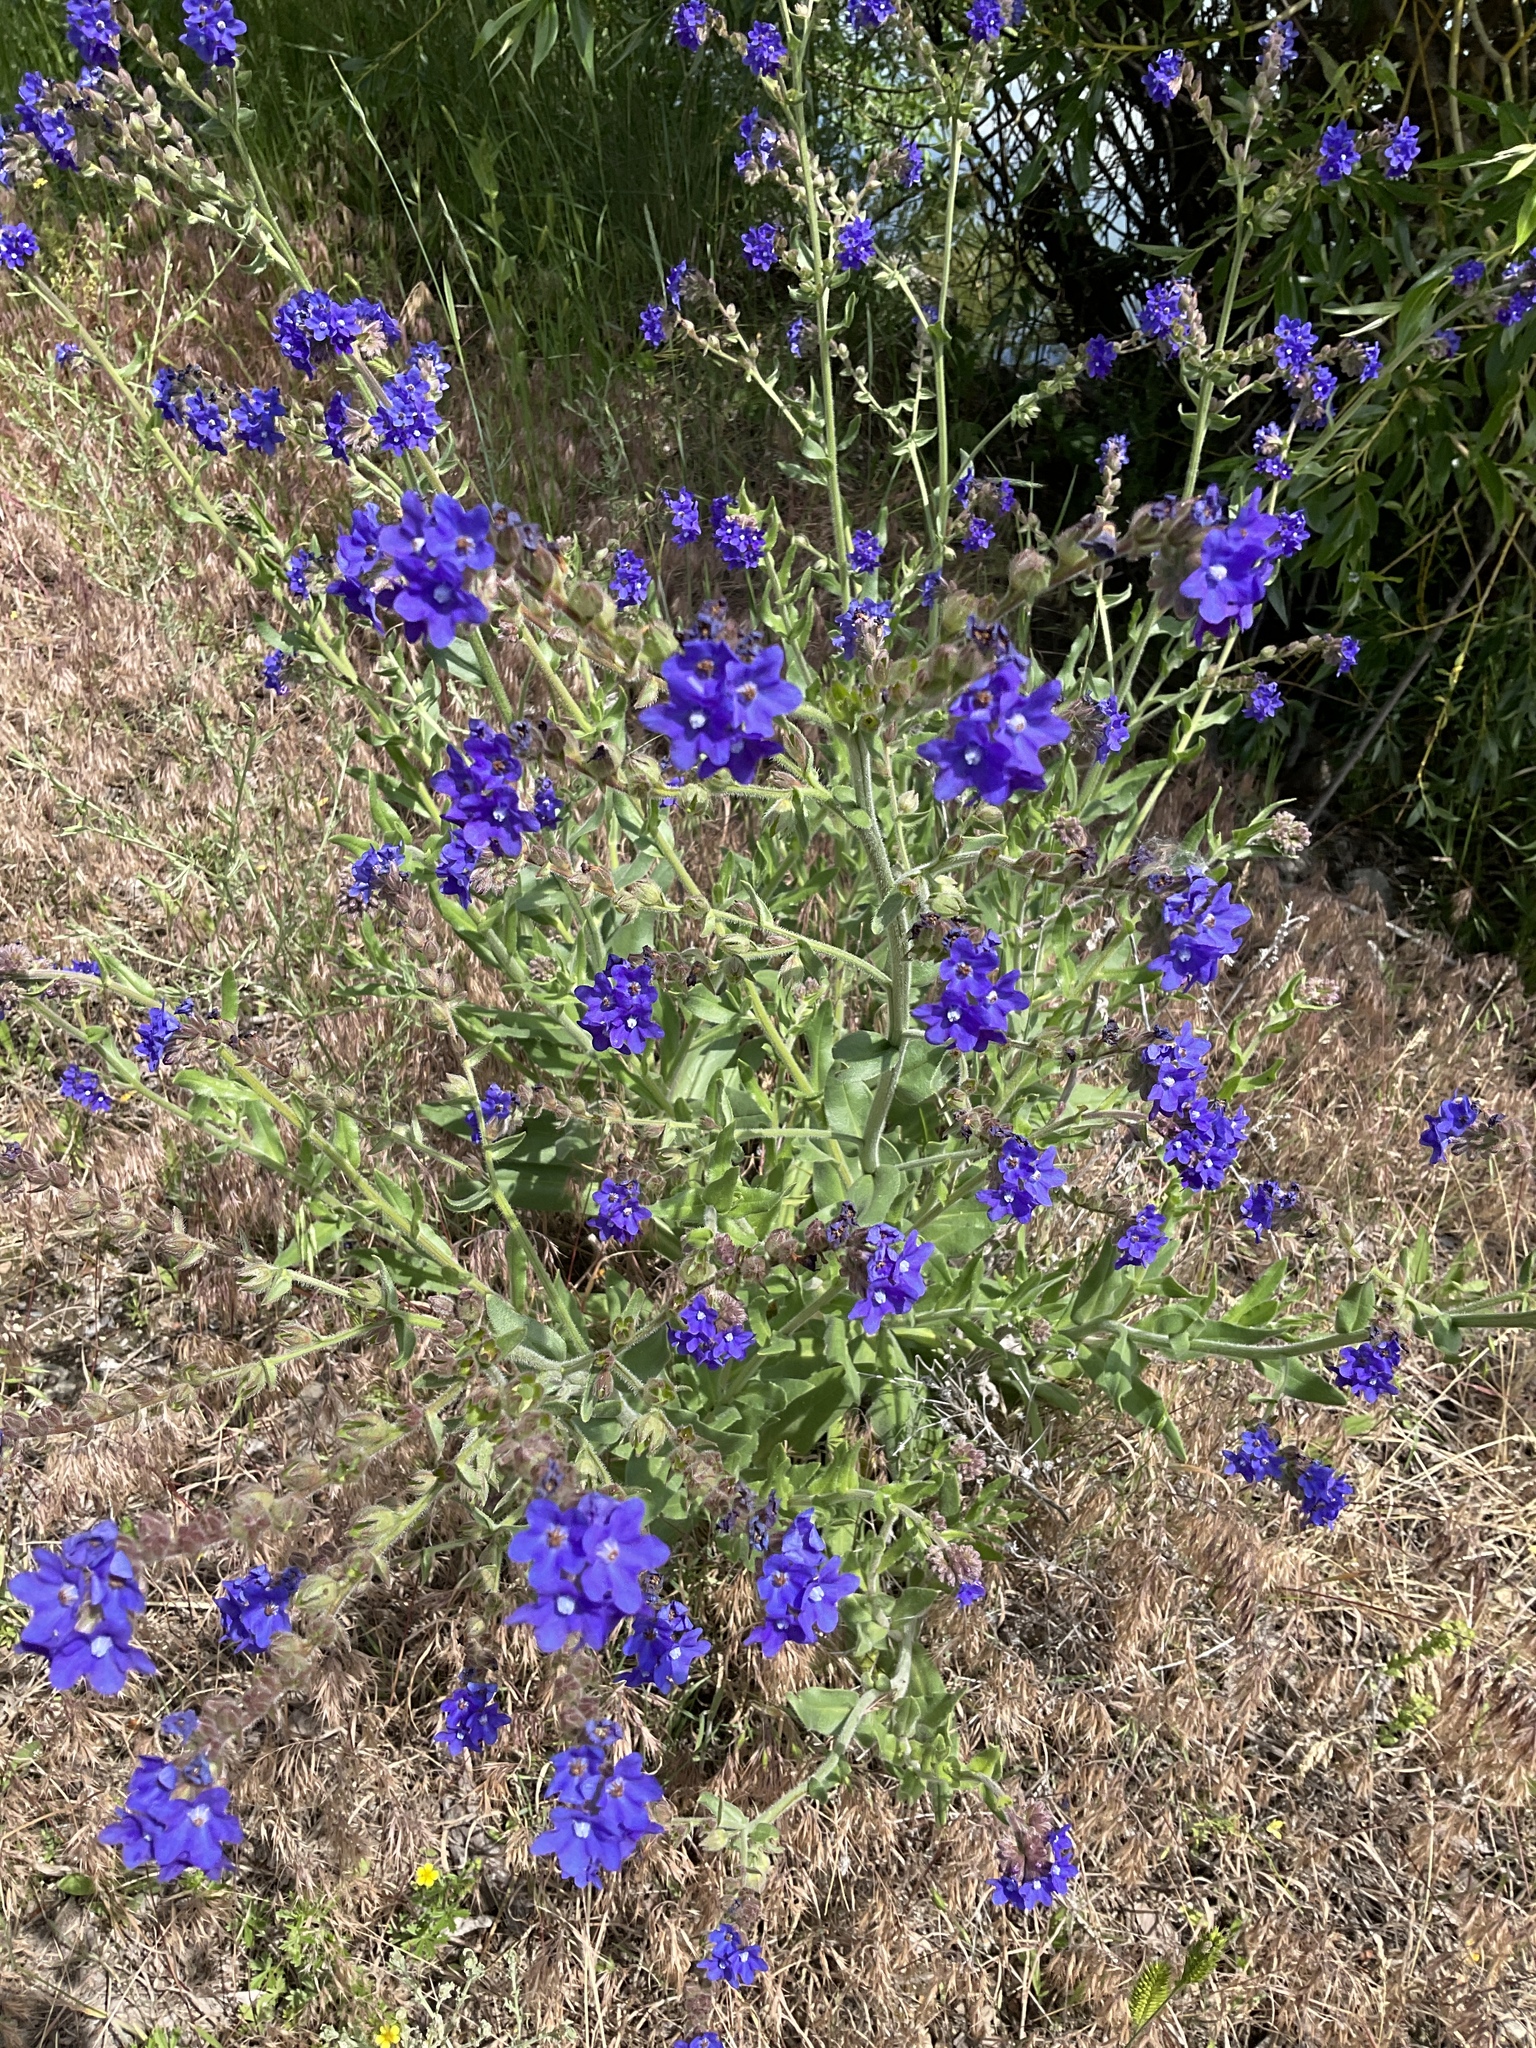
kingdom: Plantae
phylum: Tracheophyta
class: Magnoliopsida
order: Boraginales
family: Boraginaceae
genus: Anchusa
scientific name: Anchusa officinalis
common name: Alkanet
